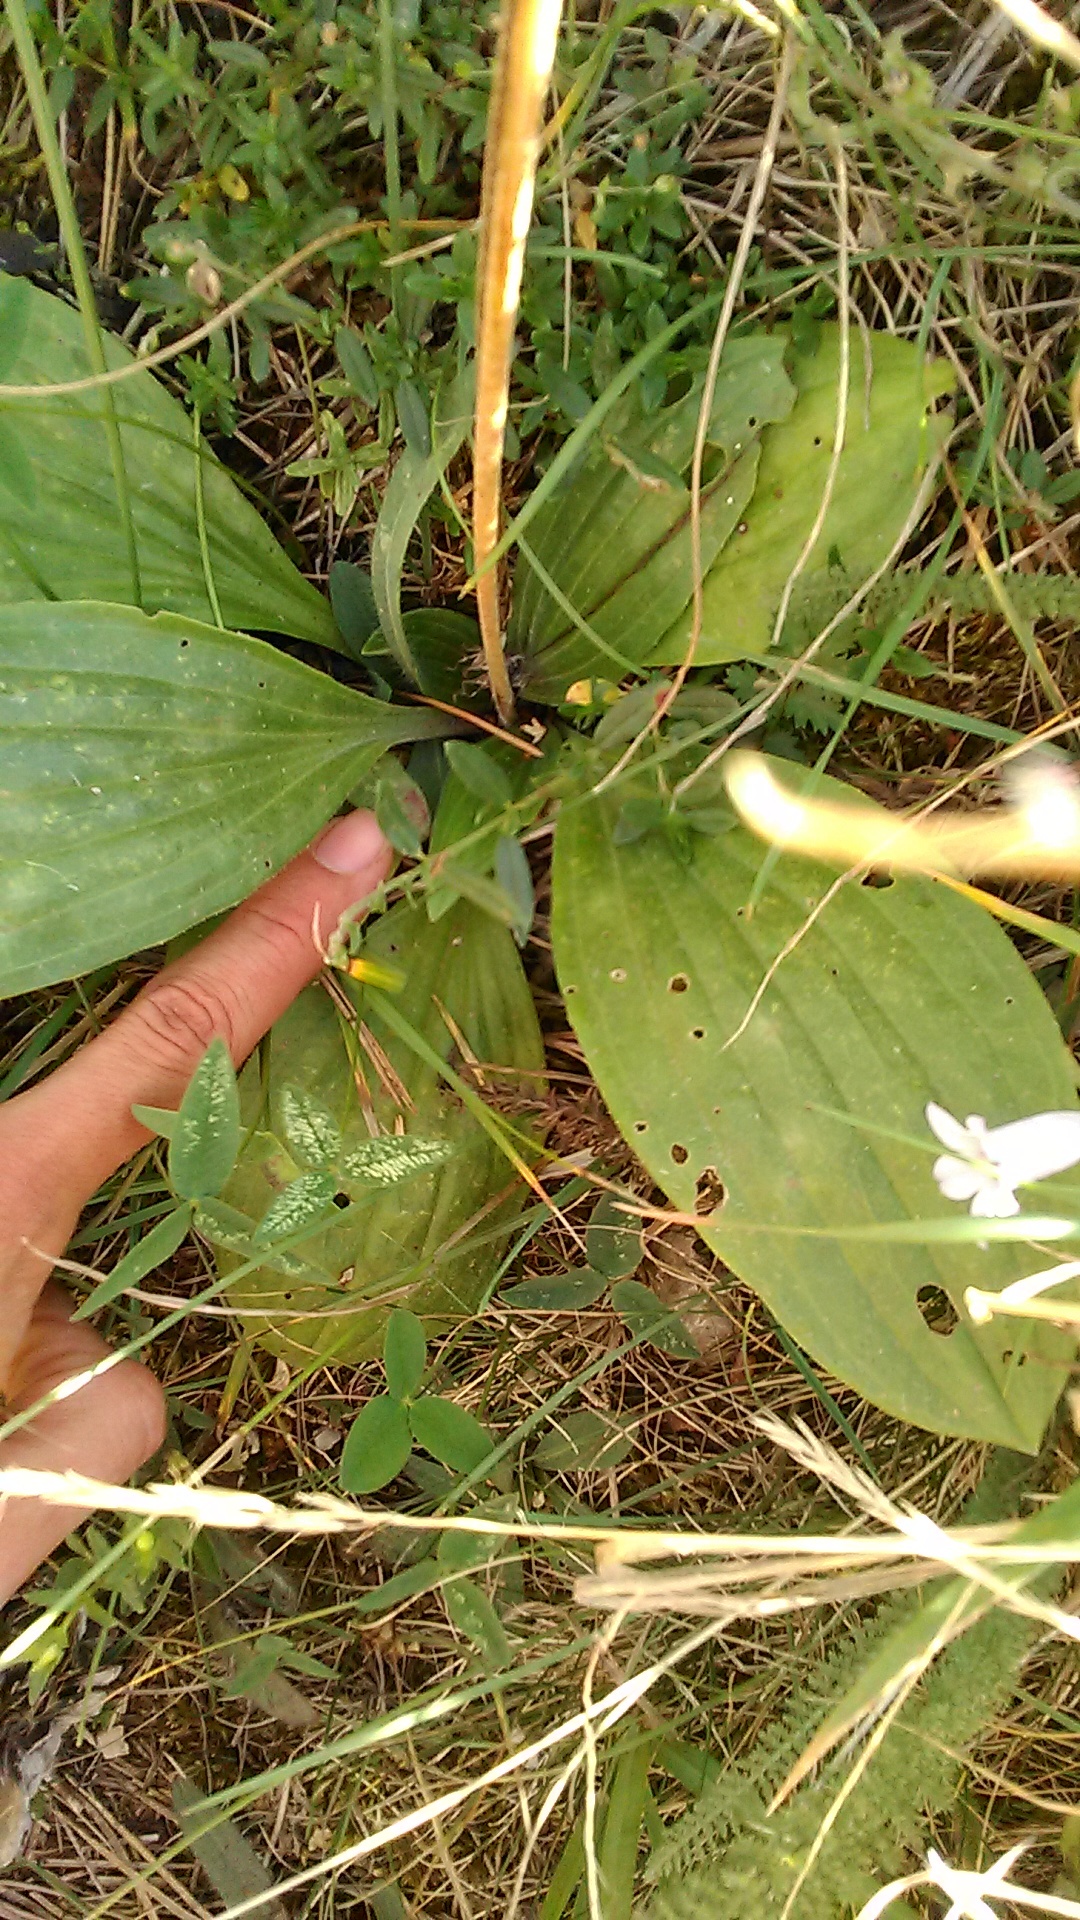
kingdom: Plantae
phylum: Tracheophyta
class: Magnoliopsida
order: Lamiales
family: Plantaginaceae
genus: Plantago
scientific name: Plantago media
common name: Hoary plantain
